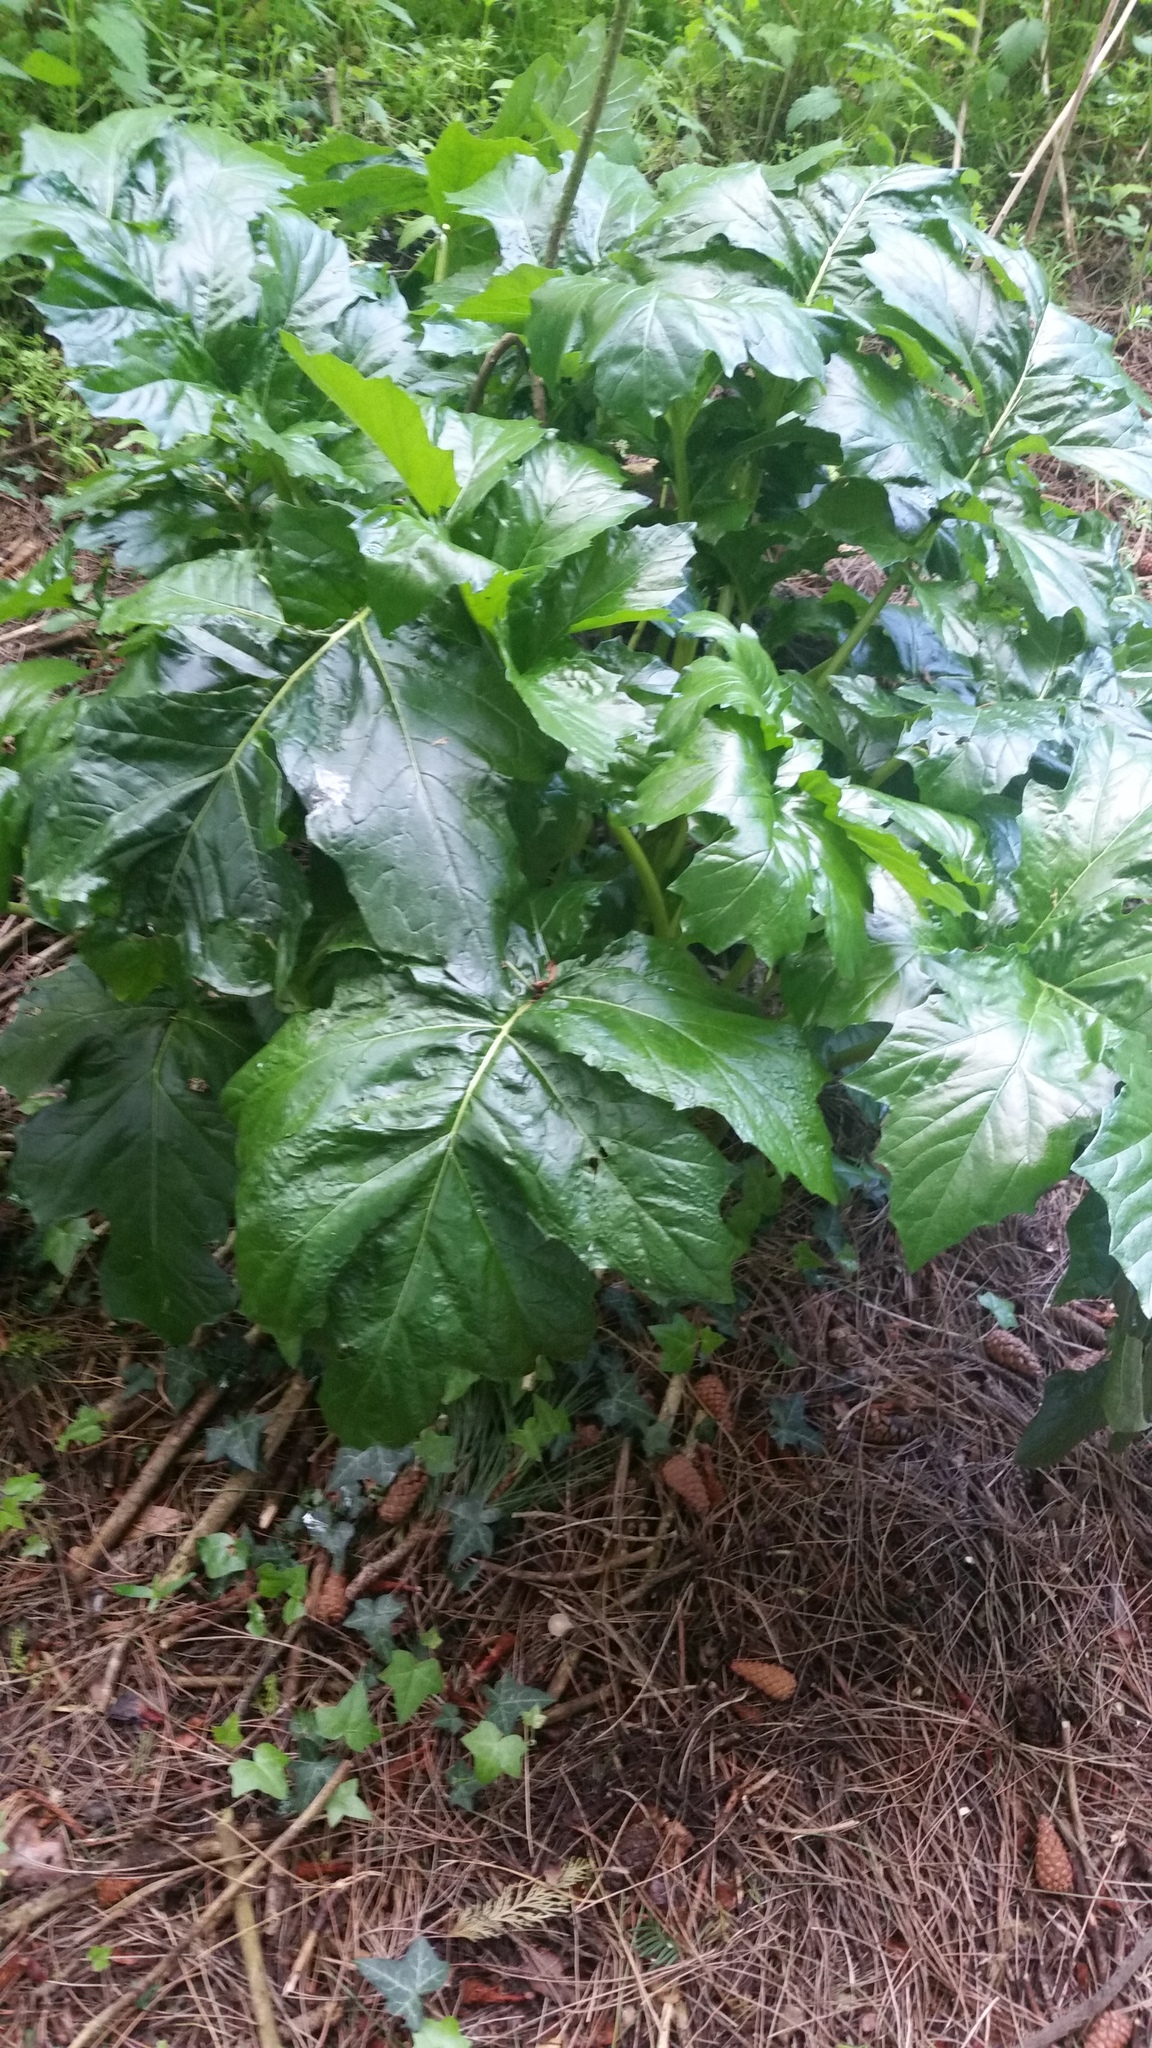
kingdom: Plantae
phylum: Tracheophyta
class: Magnoliopsida
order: Lamiales
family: Acanthaceae
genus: Acanthus
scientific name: Acanthus mollis
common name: Bear's-breech
